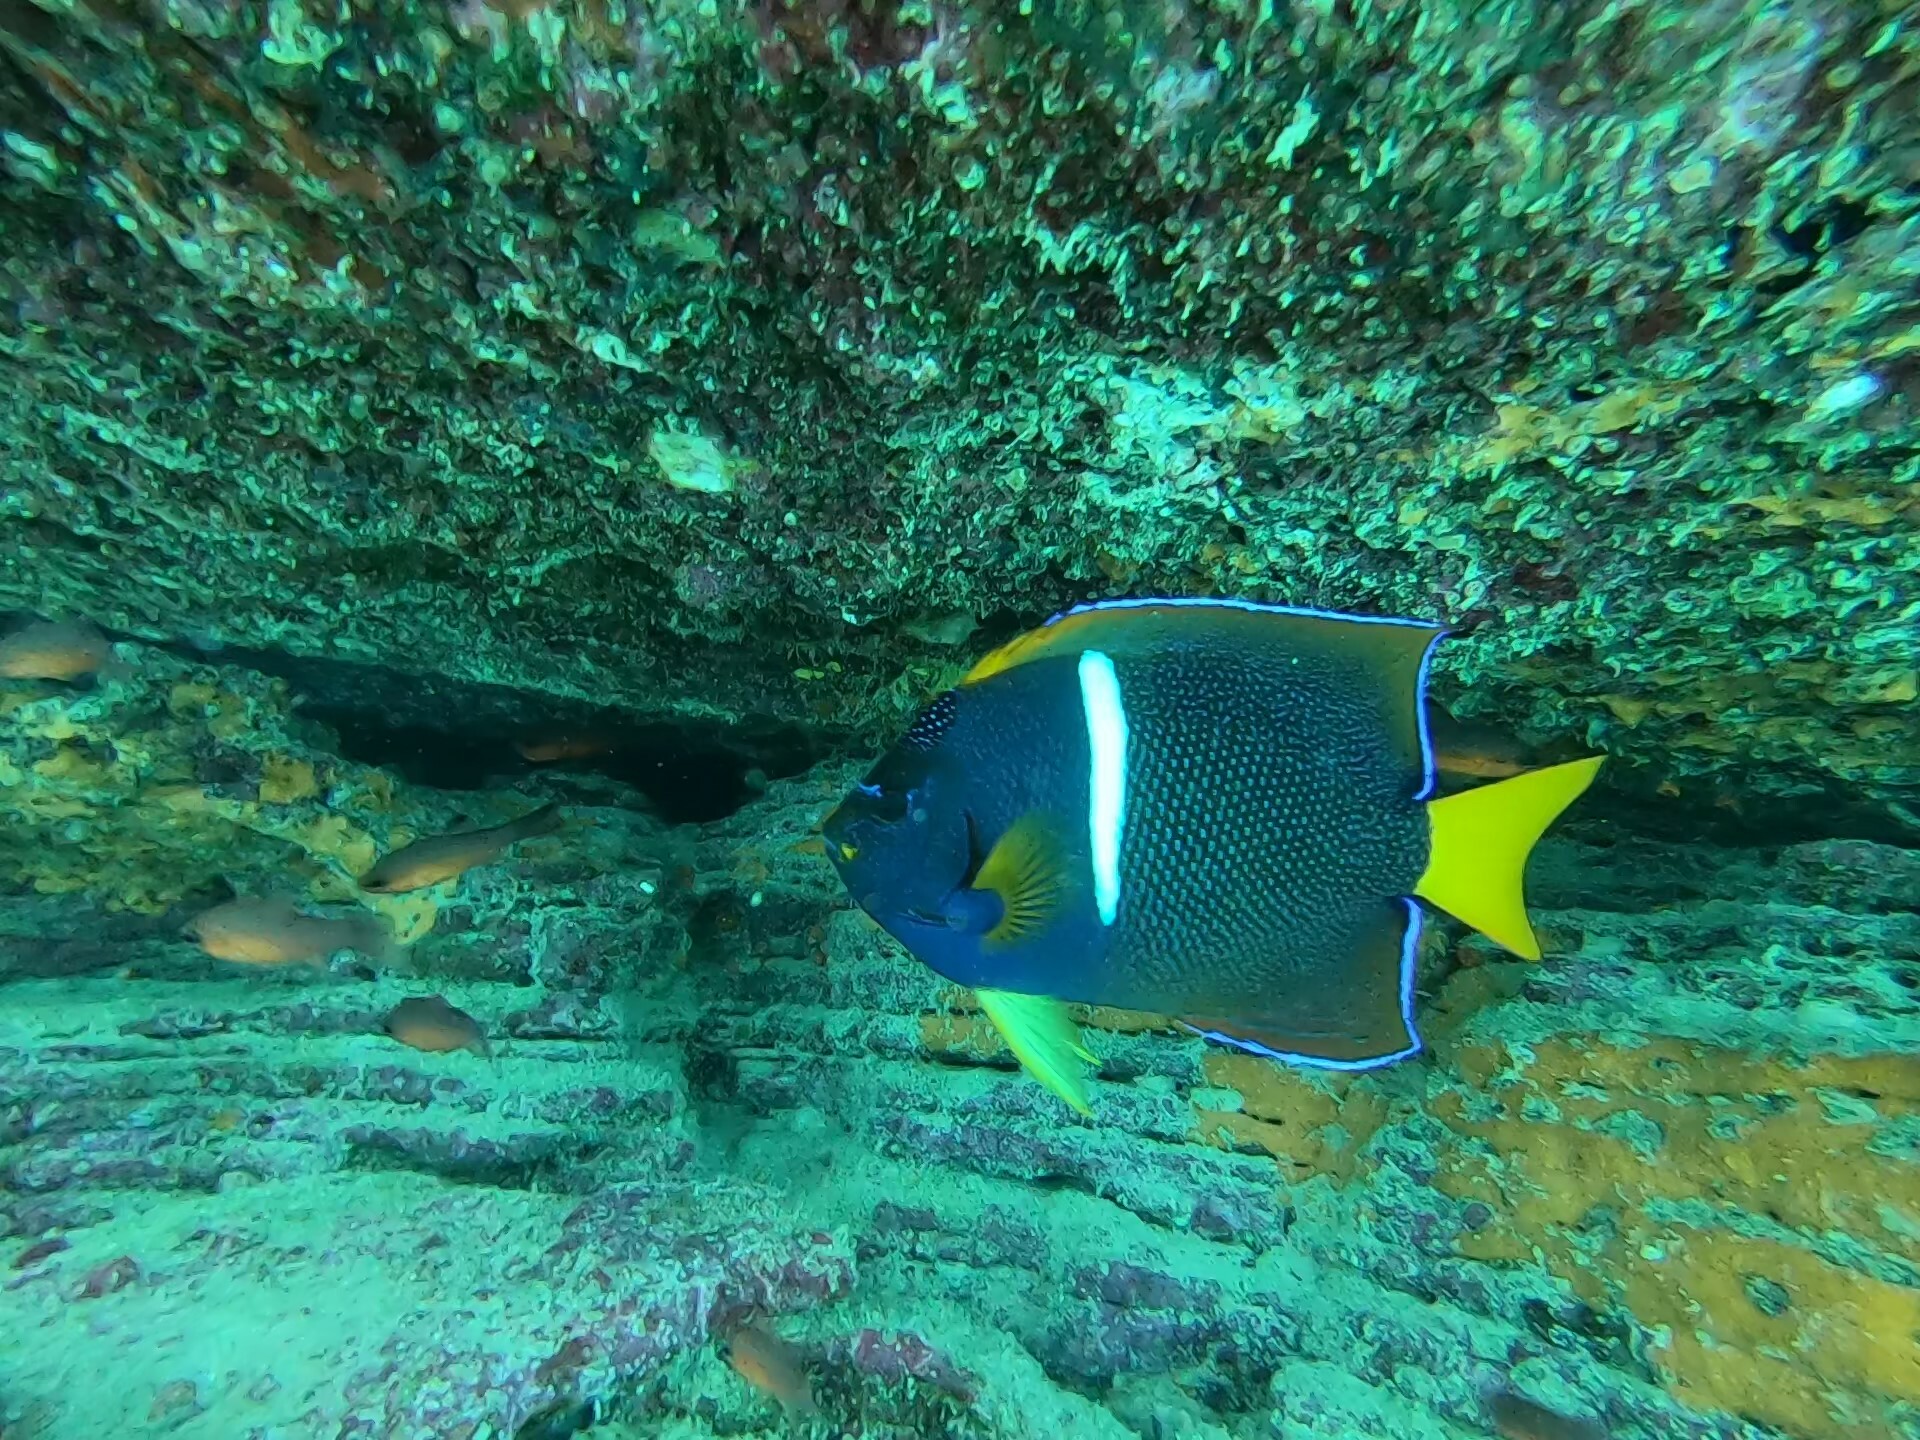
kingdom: Animalia
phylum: Chordata
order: Perciformes
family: Pomacanthidae
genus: Holacanthus
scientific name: Holacanthus passer
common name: King angelfish
